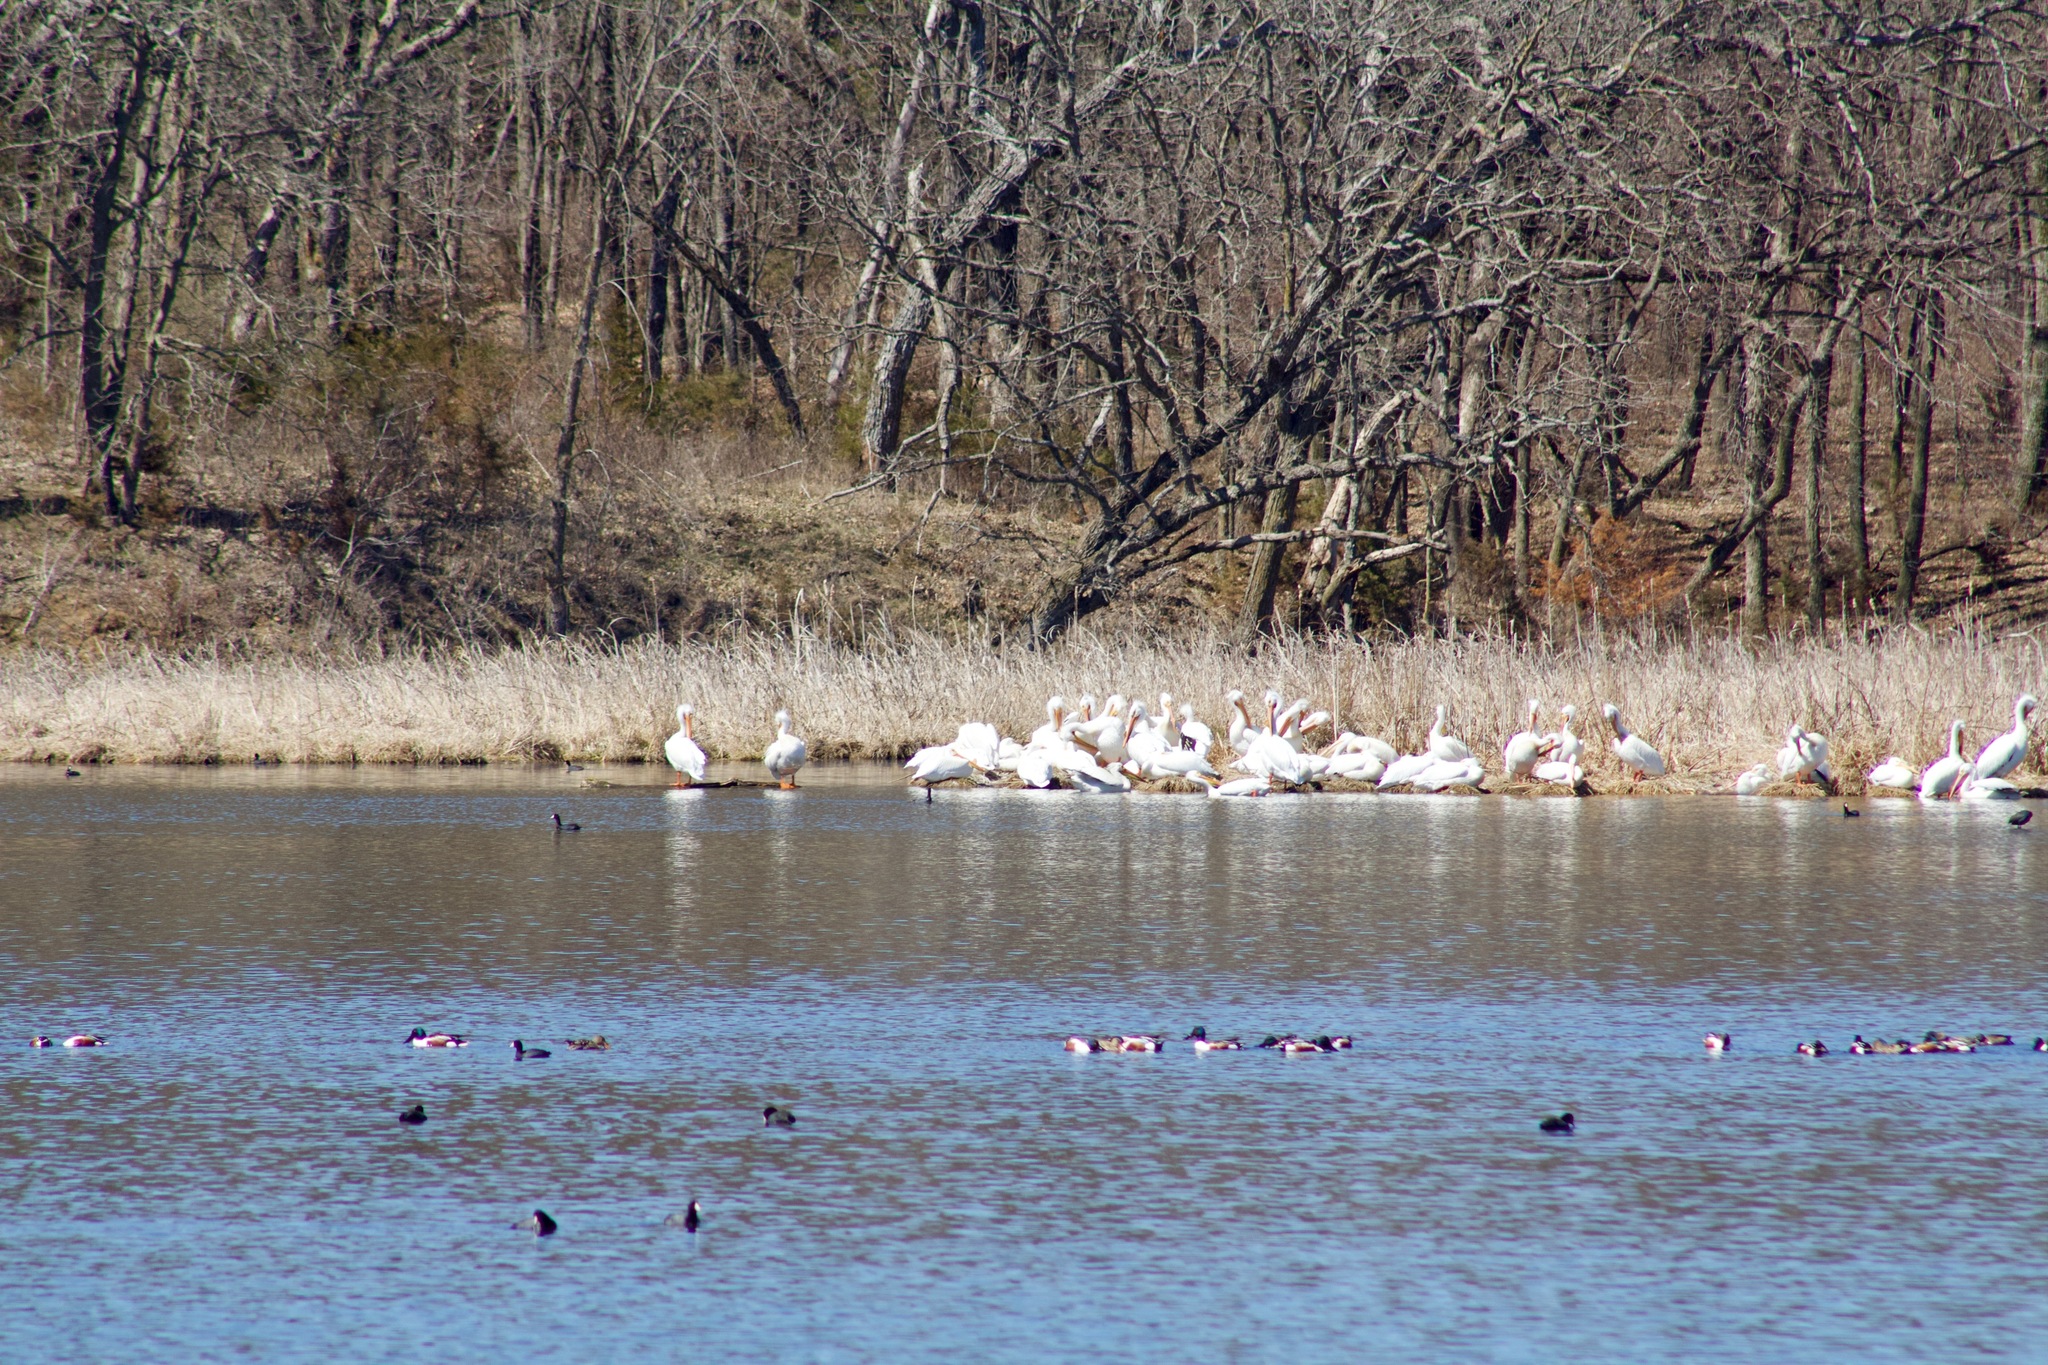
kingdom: Animalia
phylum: Chordata
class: Aves
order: Pelecaniformes
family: Pelecanidae
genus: Pelecanus
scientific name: Pelecanus erythrorhynchos
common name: American white pelican
